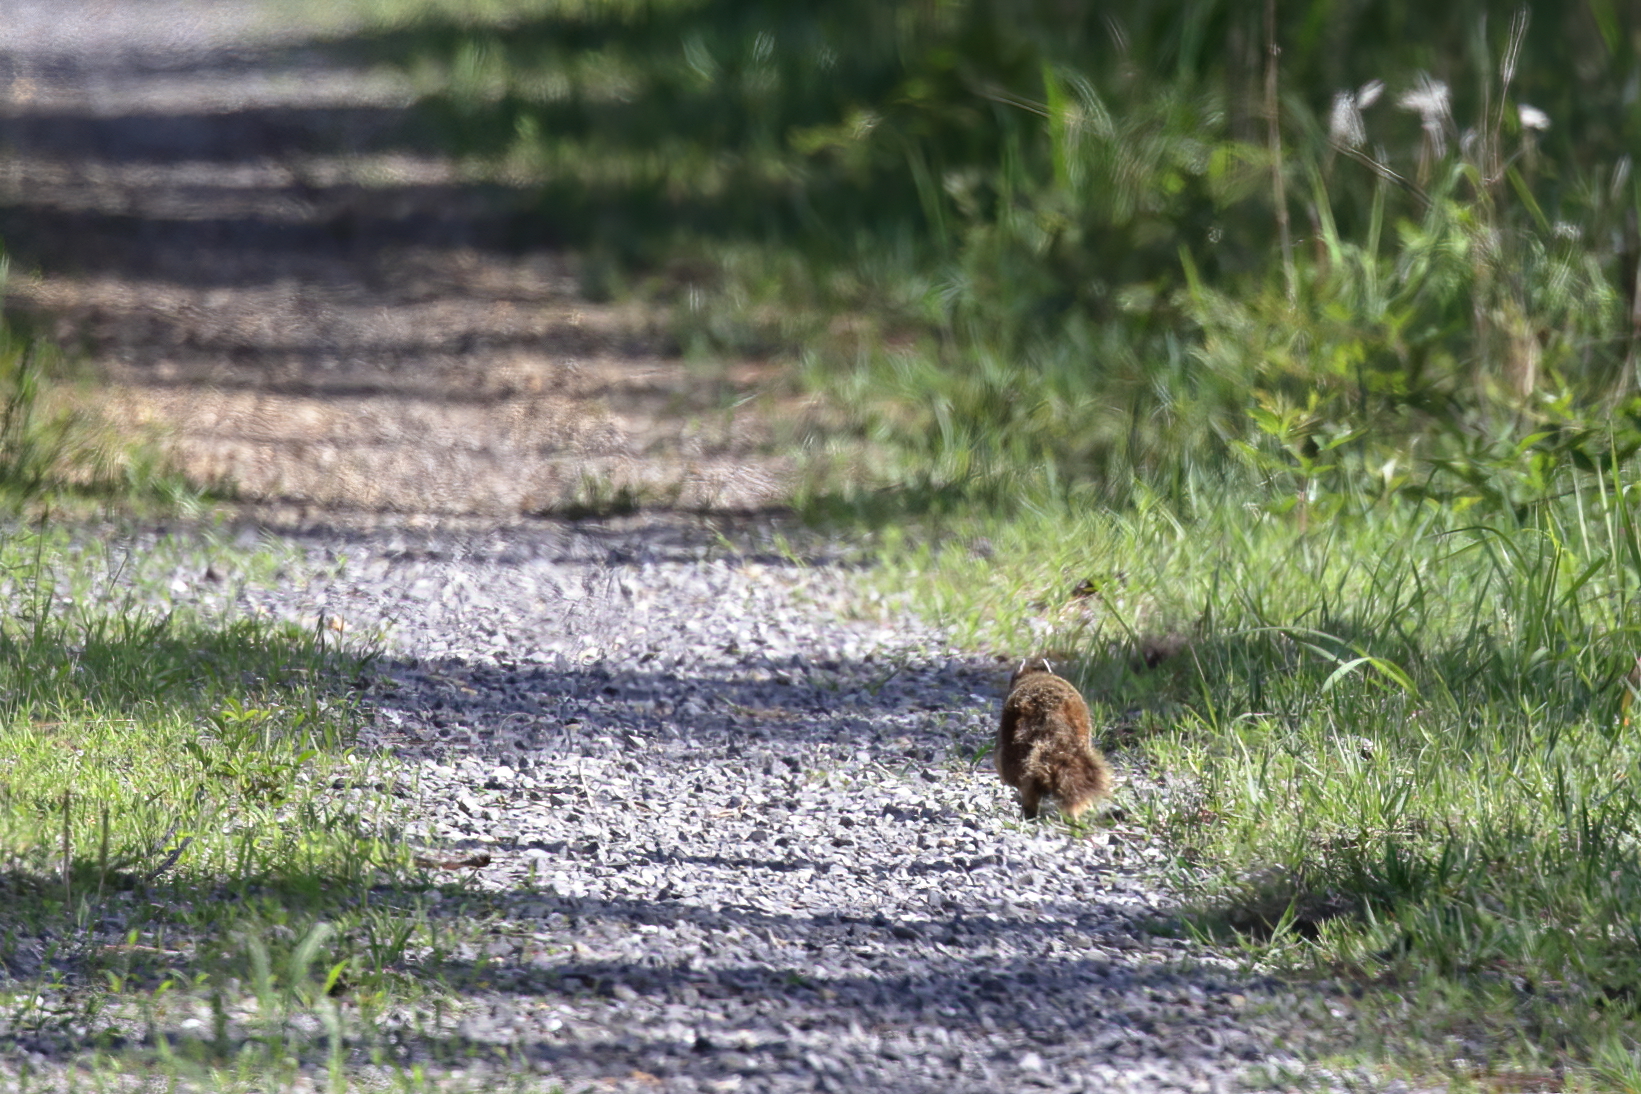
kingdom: Animalia
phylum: Chordata
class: Mammalia
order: Rodentia
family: Sciuridae
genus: Sciurus
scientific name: Sciurus niger
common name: Fox squirrel
